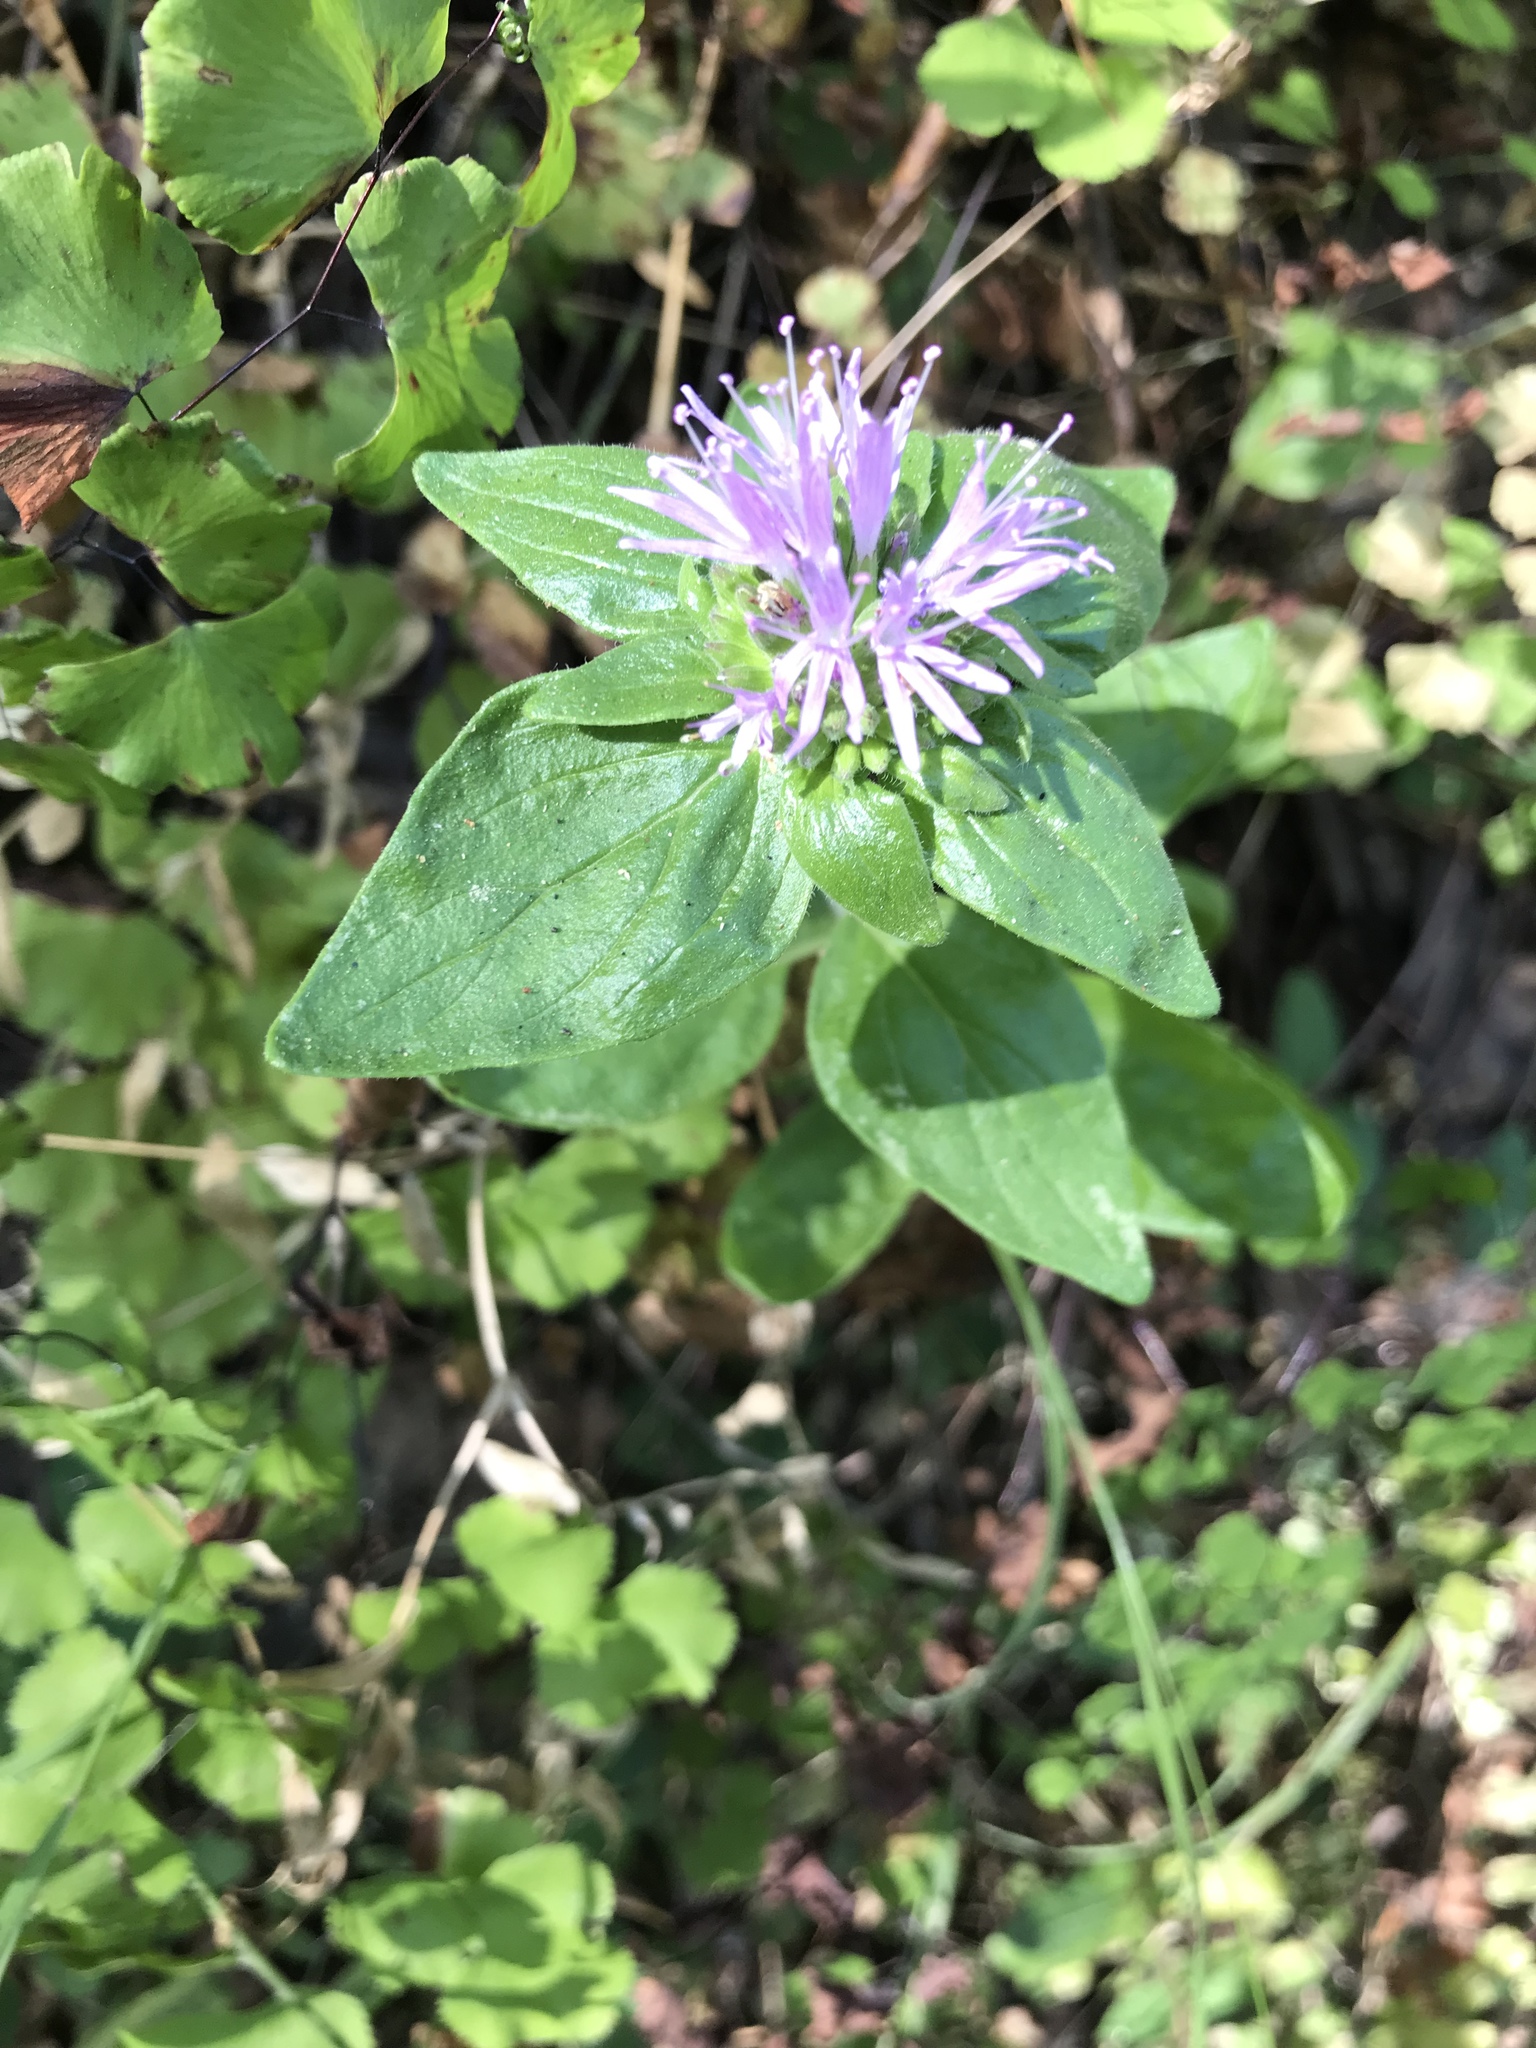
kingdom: Plantae
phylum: Tracheophyta
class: Magnoliopsida
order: Lamiales
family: Lamiaceae
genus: Monardella
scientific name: Monardella odoratissima
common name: Pacific monardella
